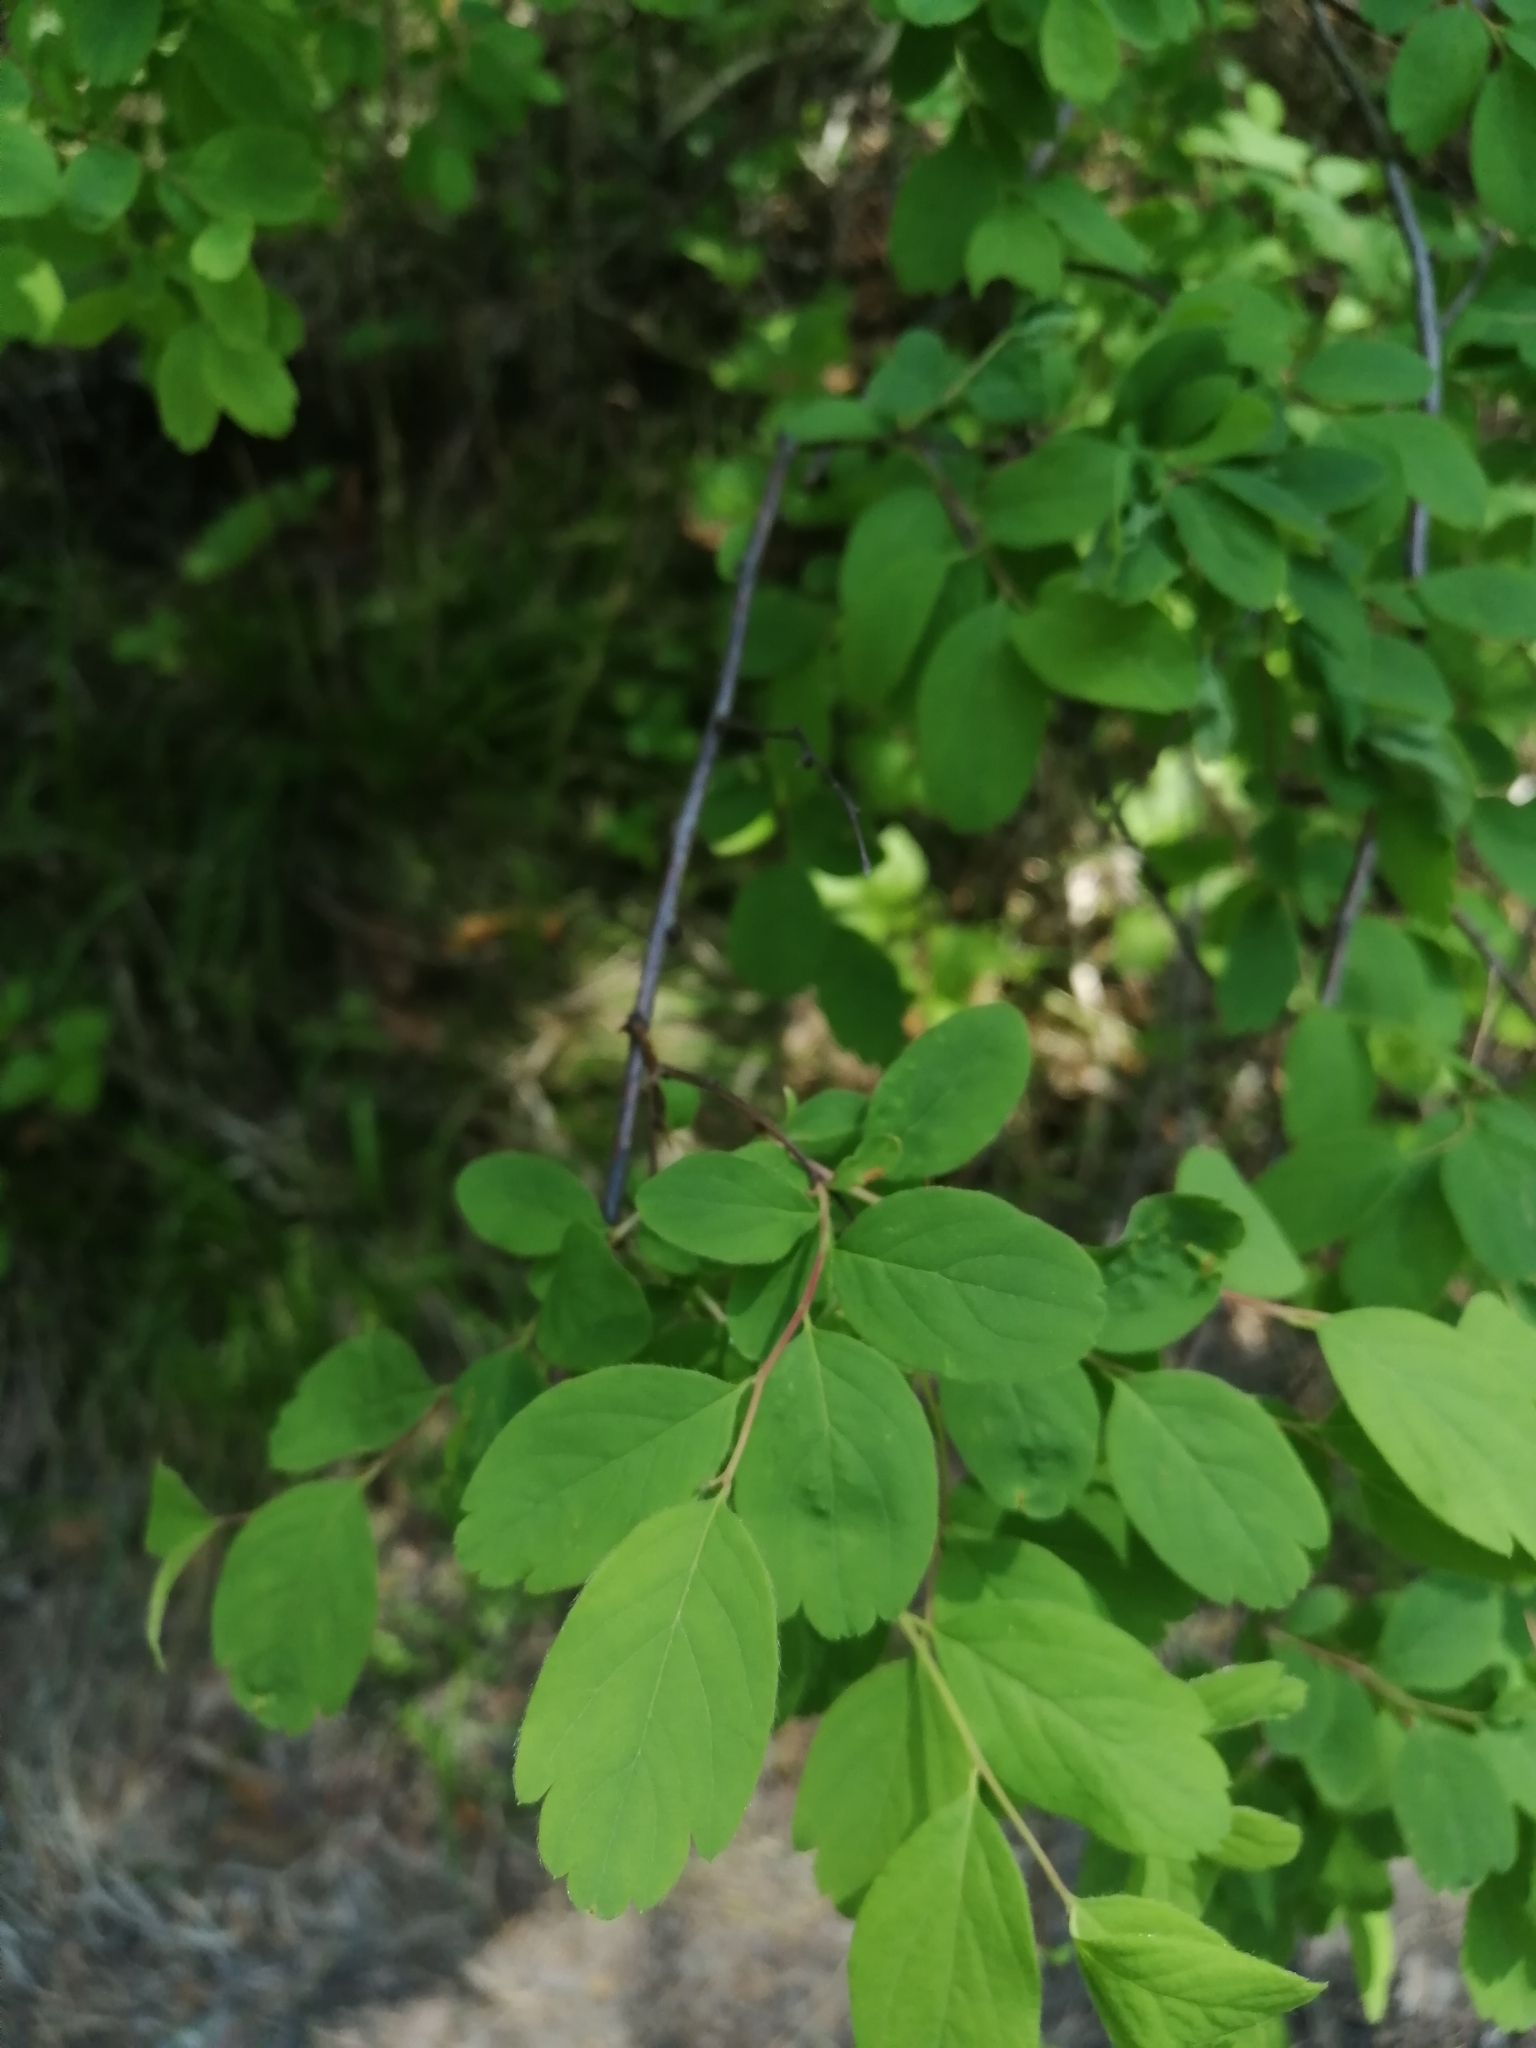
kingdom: Plantae
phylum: Tracheophyta
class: Magnoliopsida
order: Rosales
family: Rosaceae
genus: Spiraea
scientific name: Spiraea media
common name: Russian spiraea
